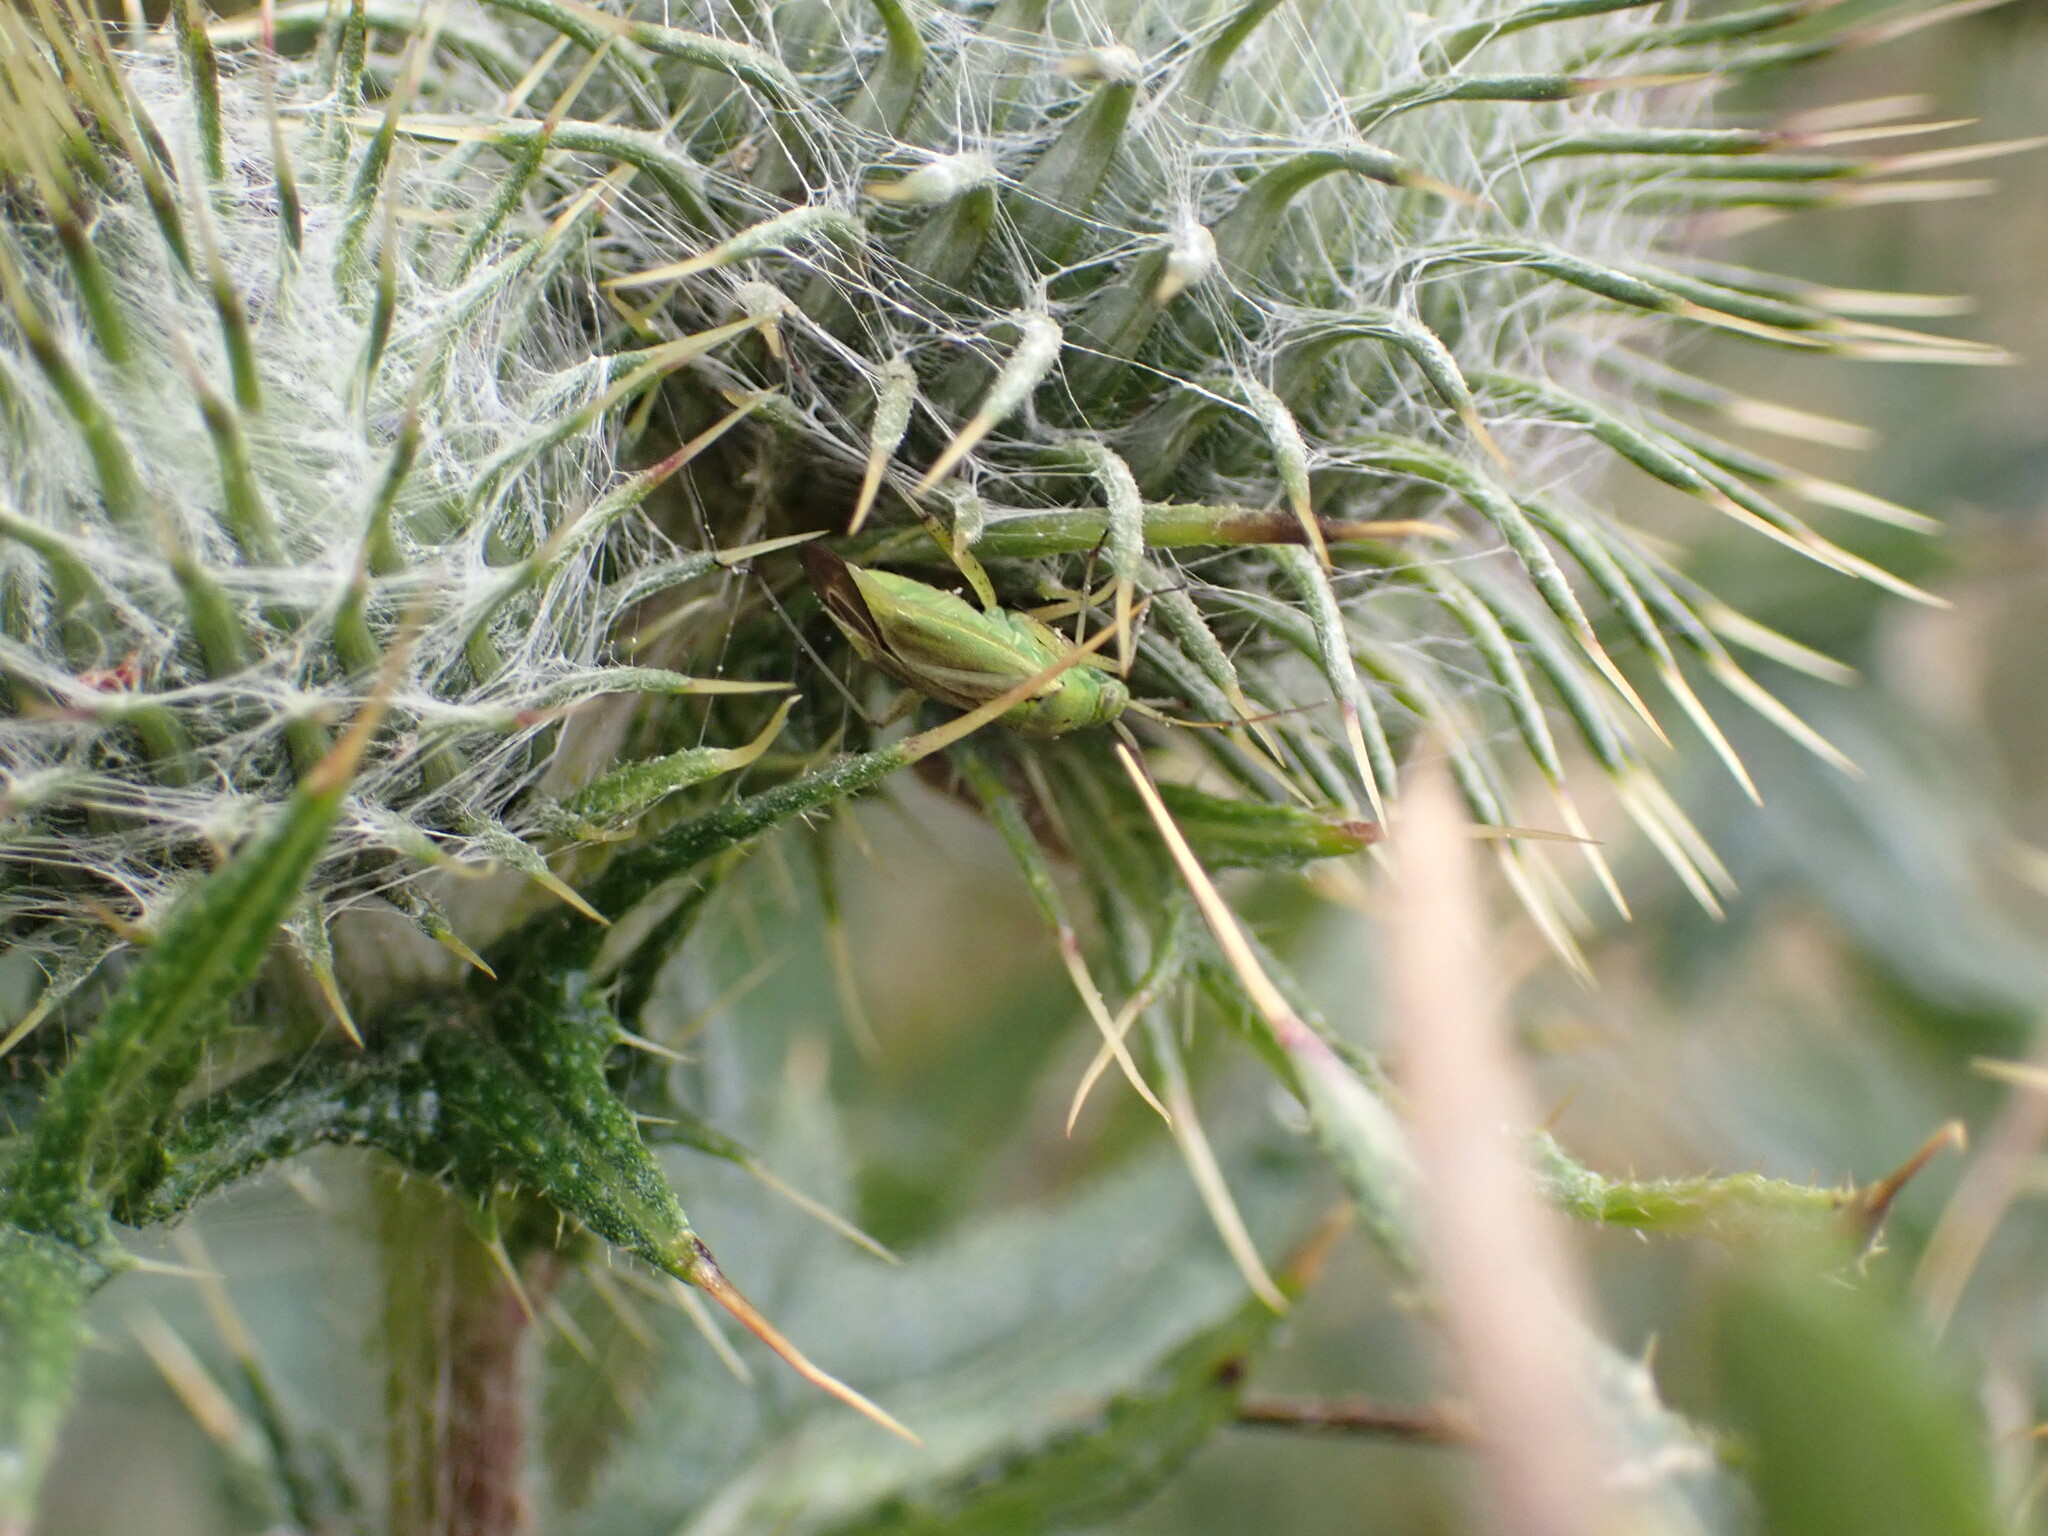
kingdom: Animalia
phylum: Arthropoda
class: Insecta
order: Hemiptera
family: Miridae
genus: Closterotomus
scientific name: Closterotomus norvegicus
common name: Plant bug
